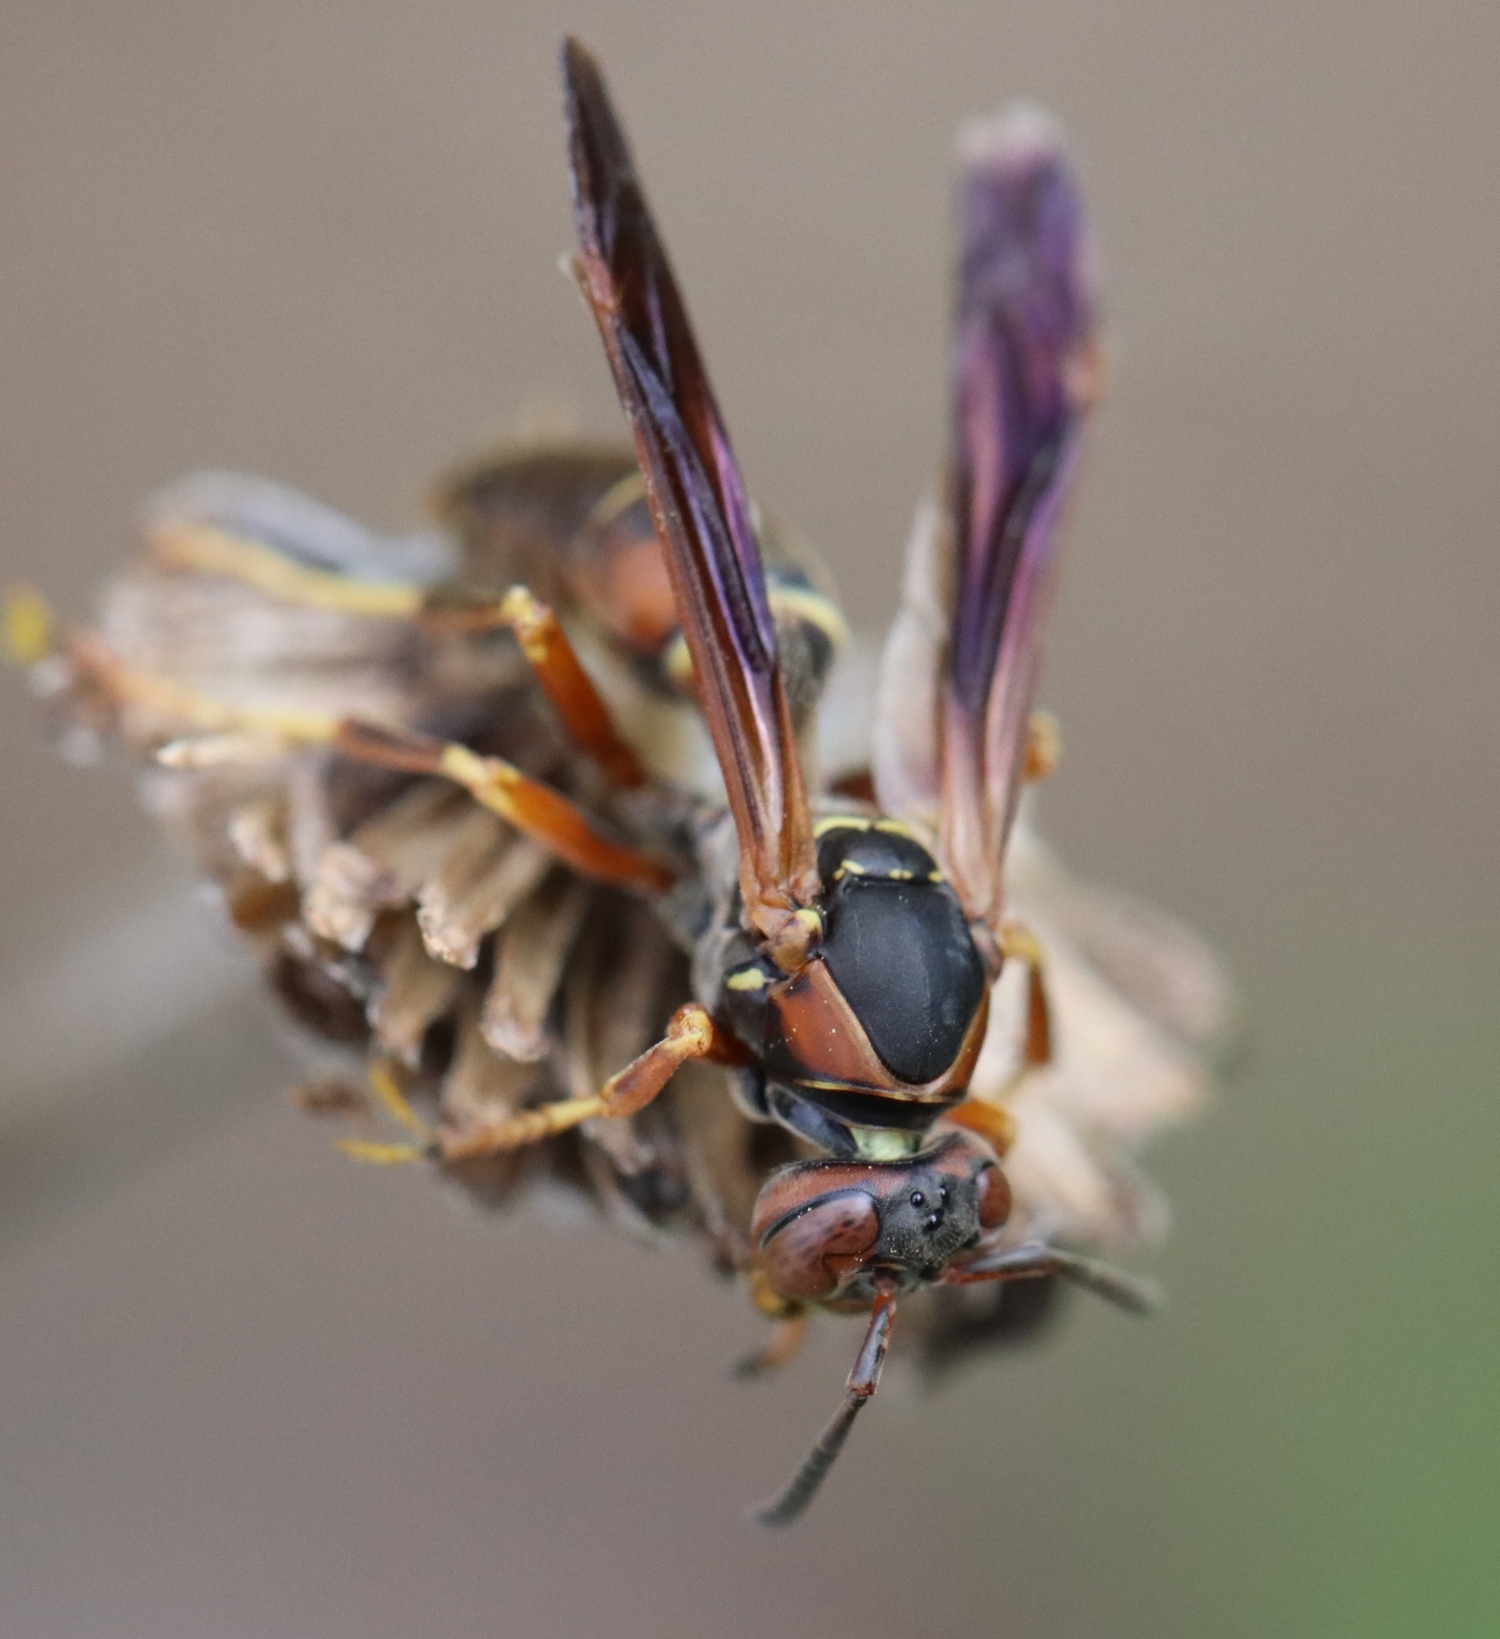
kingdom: Animalia
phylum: Arthropoda
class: Insecta
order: Hymenoptera
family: Eumenidae
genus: Polistes
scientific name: Polistes fuscatus
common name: Dark paper wasp
